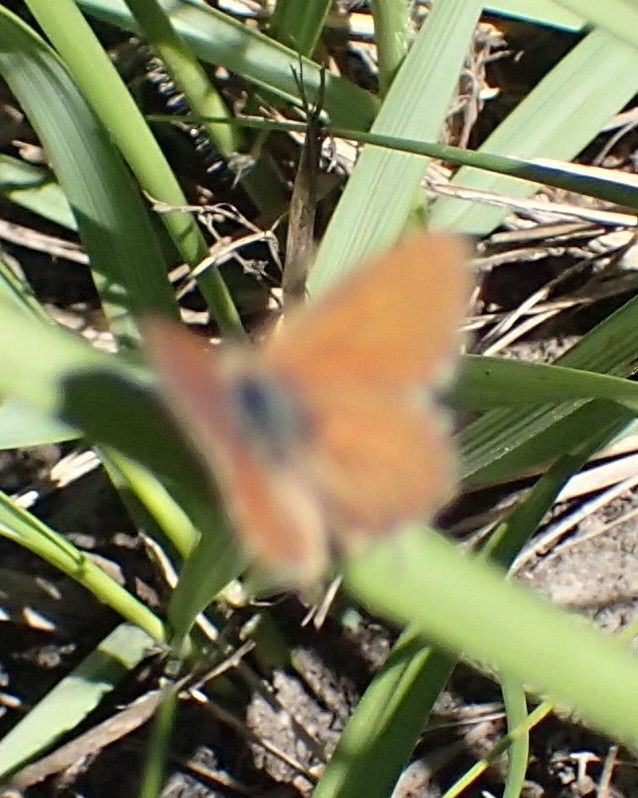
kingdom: Animalia
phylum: Arthropoda
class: Insecta
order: Lepidoptera
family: Lycaenidae
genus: Cacyreus
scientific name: Cacyreus fracta
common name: Water bronze
